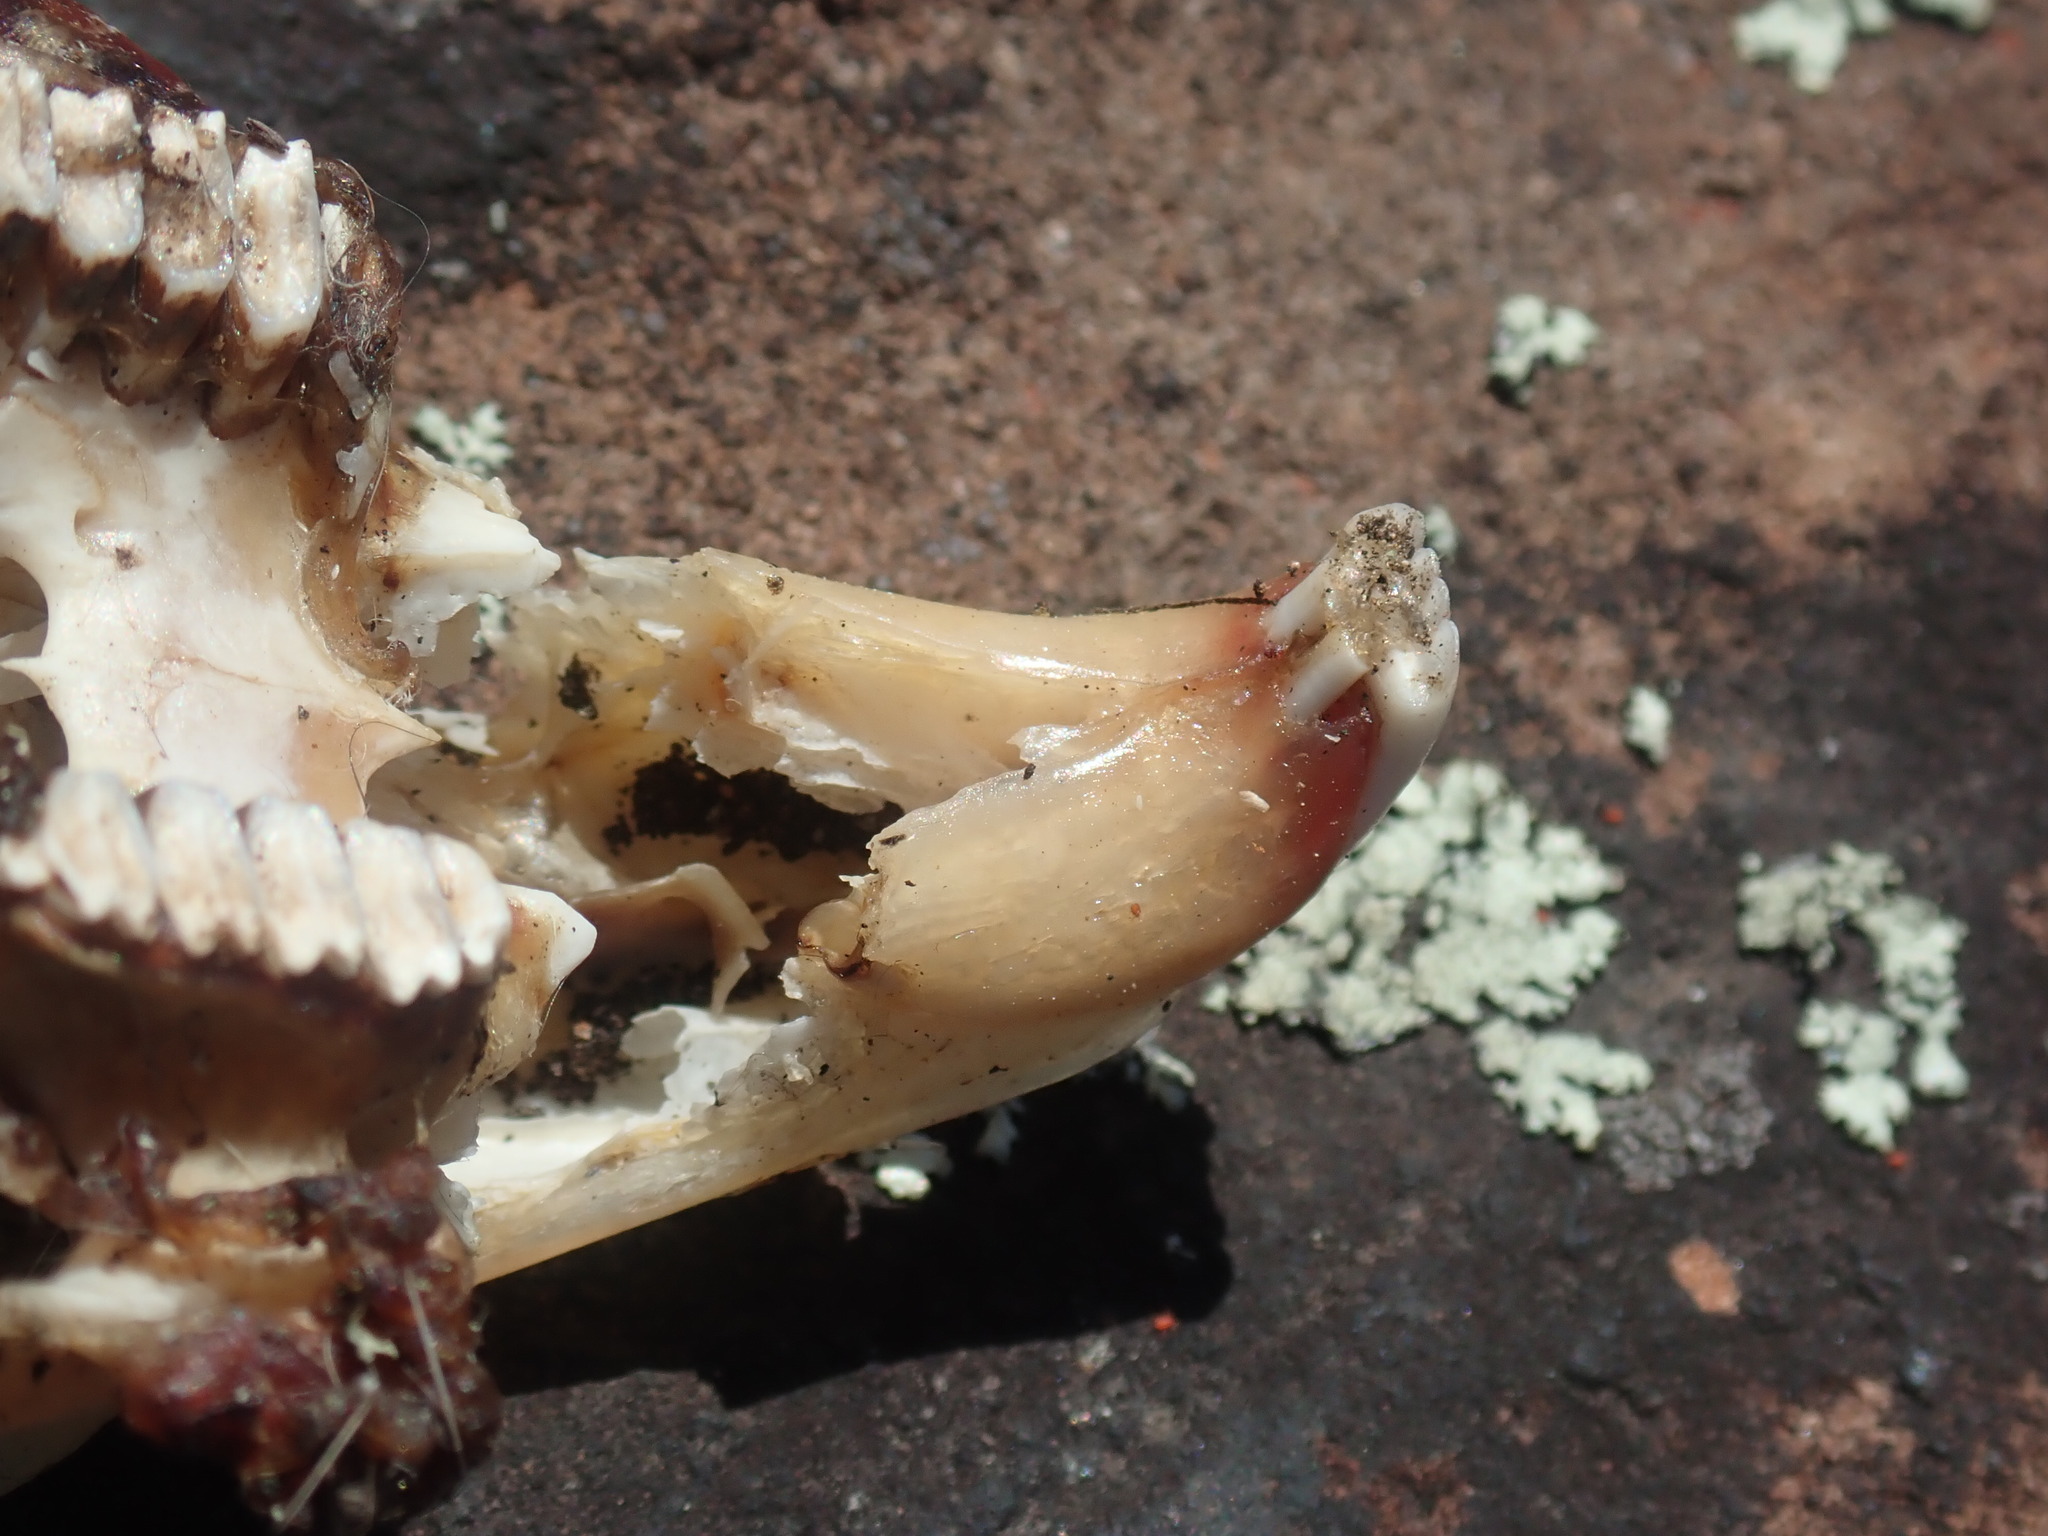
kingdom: Animalia
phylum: Chordata
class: Mammalia
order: Lagomorpha
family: Leporidae
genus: Sylvilagus
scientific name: Sylvilagus floridanus
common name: Eastern cottontail
